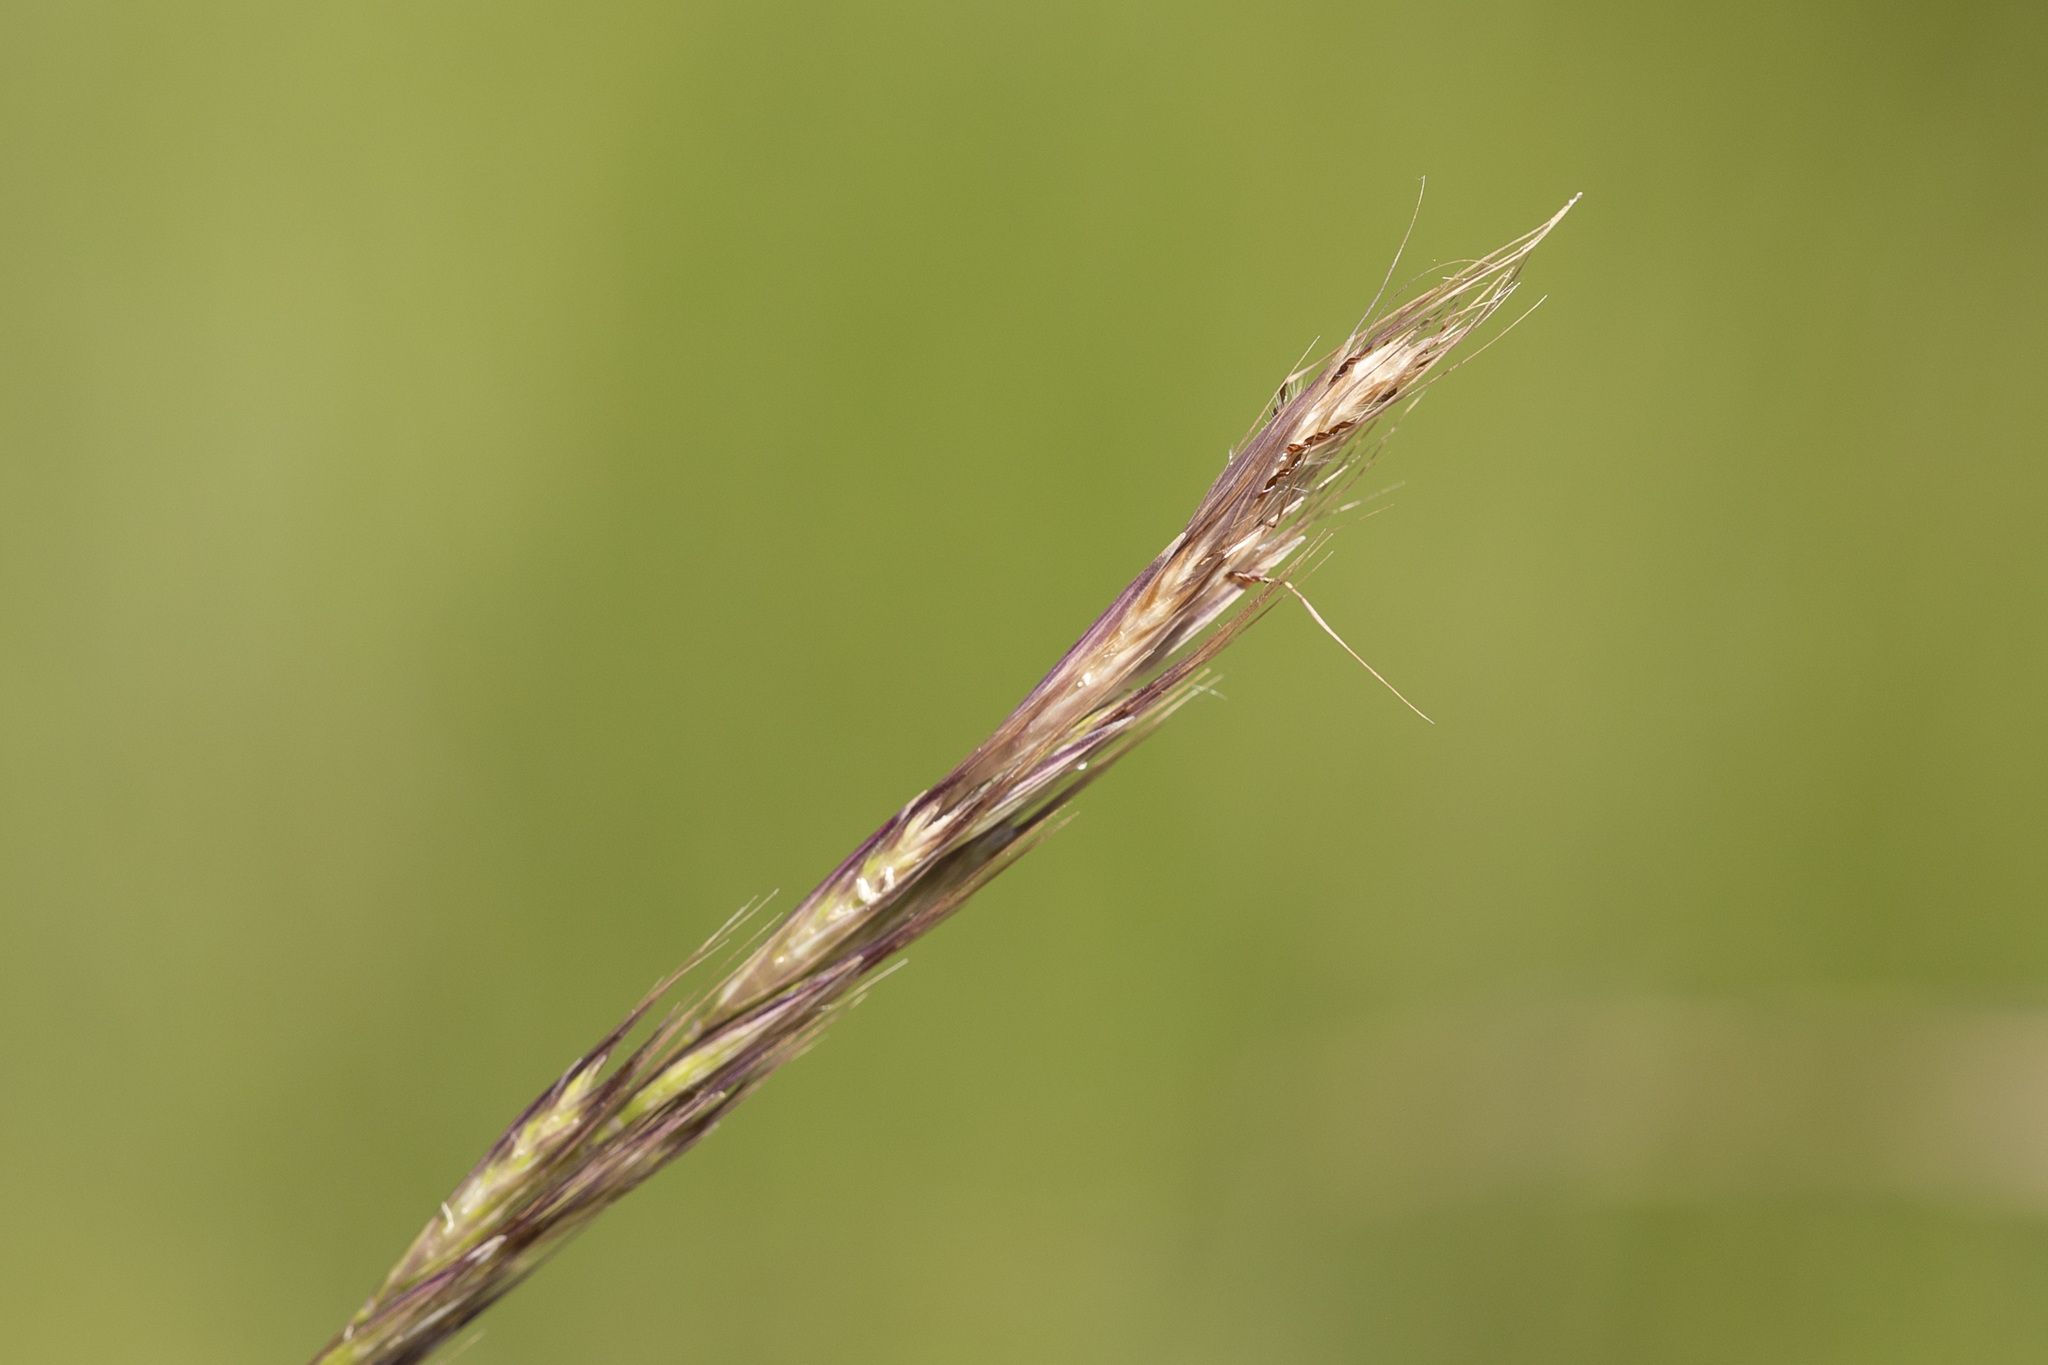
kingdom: Plantae
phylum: Tracheophyta
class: Liliopsida
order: Poales
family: Poaceae
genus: Rytidosperma
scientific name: Rytidosperma racemosum
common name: Wallaby-grass
